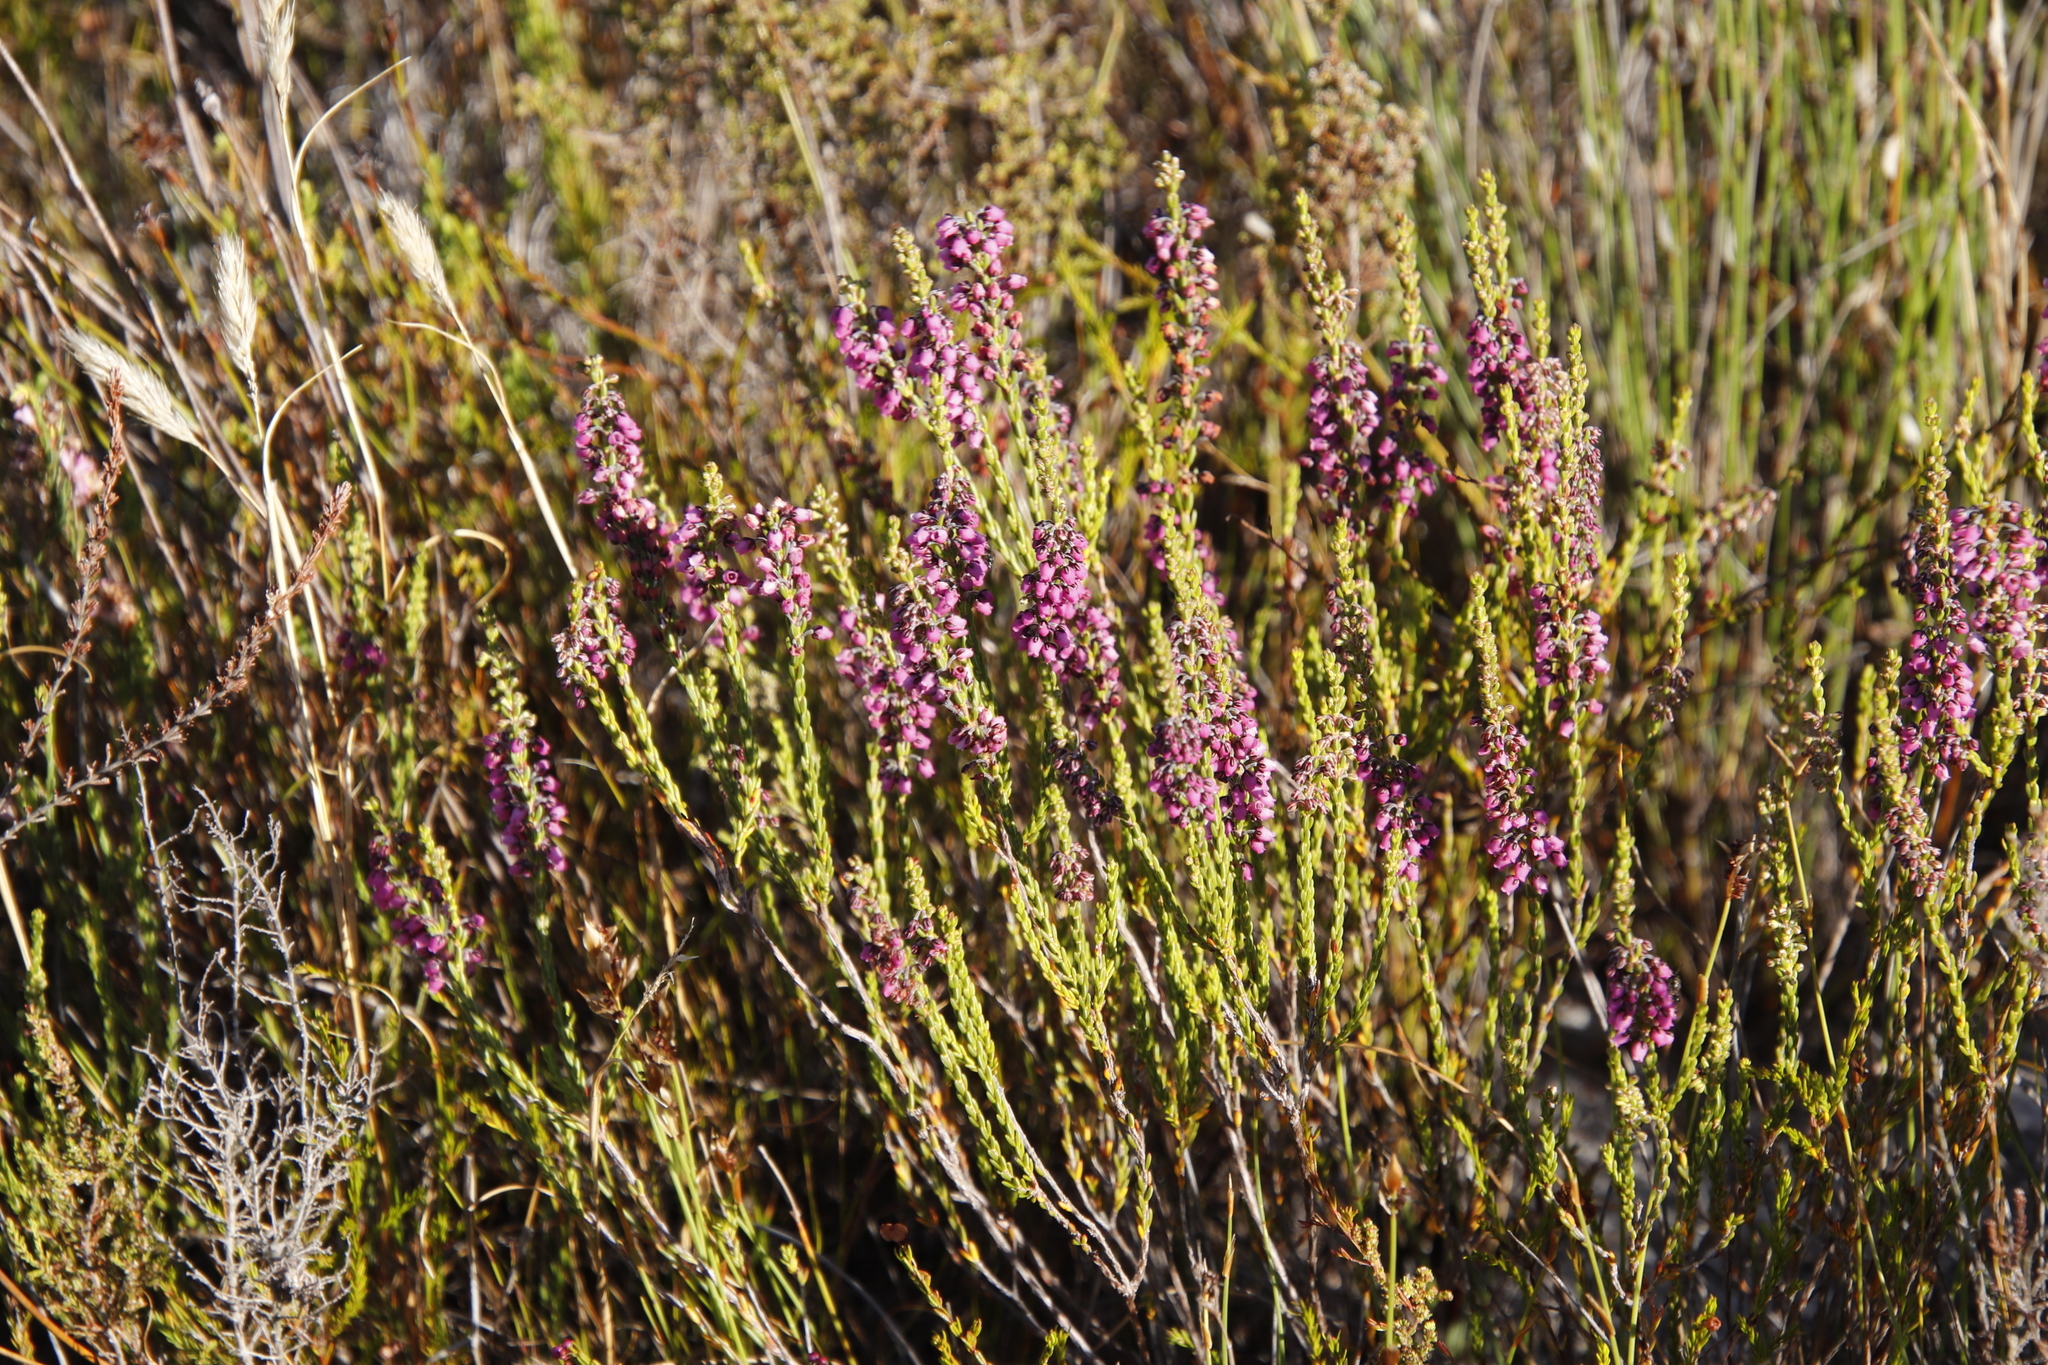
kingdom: Plantae
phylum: Tracheophyta
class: Magnoliopsida
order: Ericales
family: Ericaceae
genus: Erica
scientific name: Erica pulchella
